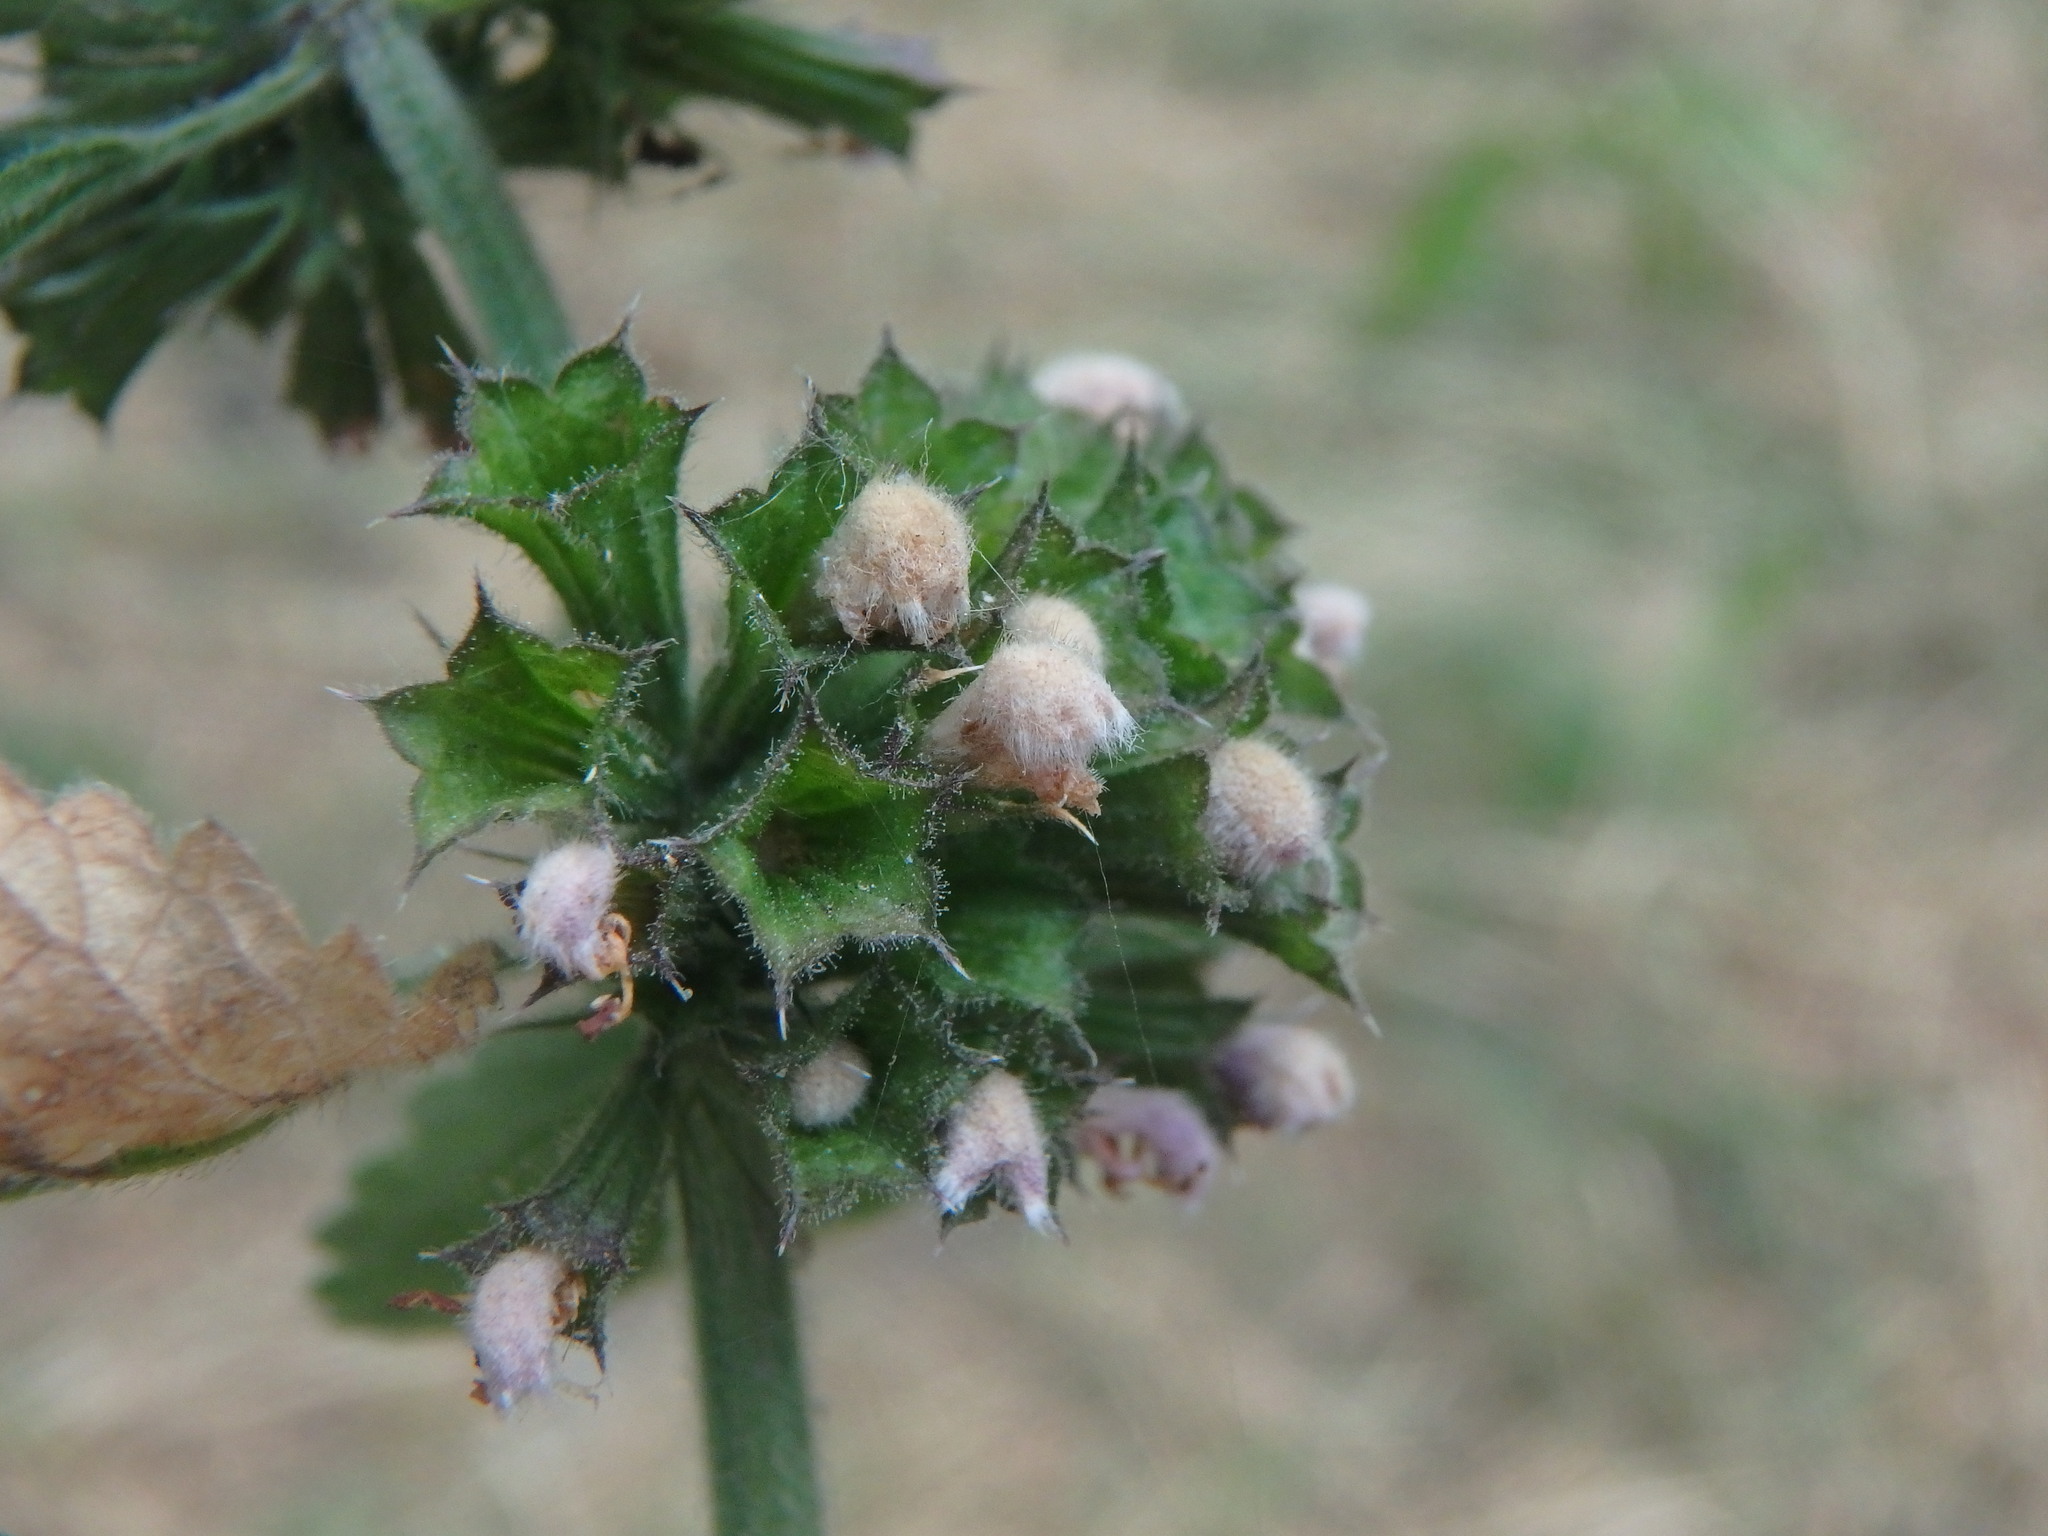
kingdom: Plantae
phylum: Tracheophyta
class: Magnoliopsida
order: Lamiales
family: Lamiaceae
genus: Ballota
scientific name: Ballota nigra
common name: Black horehound
